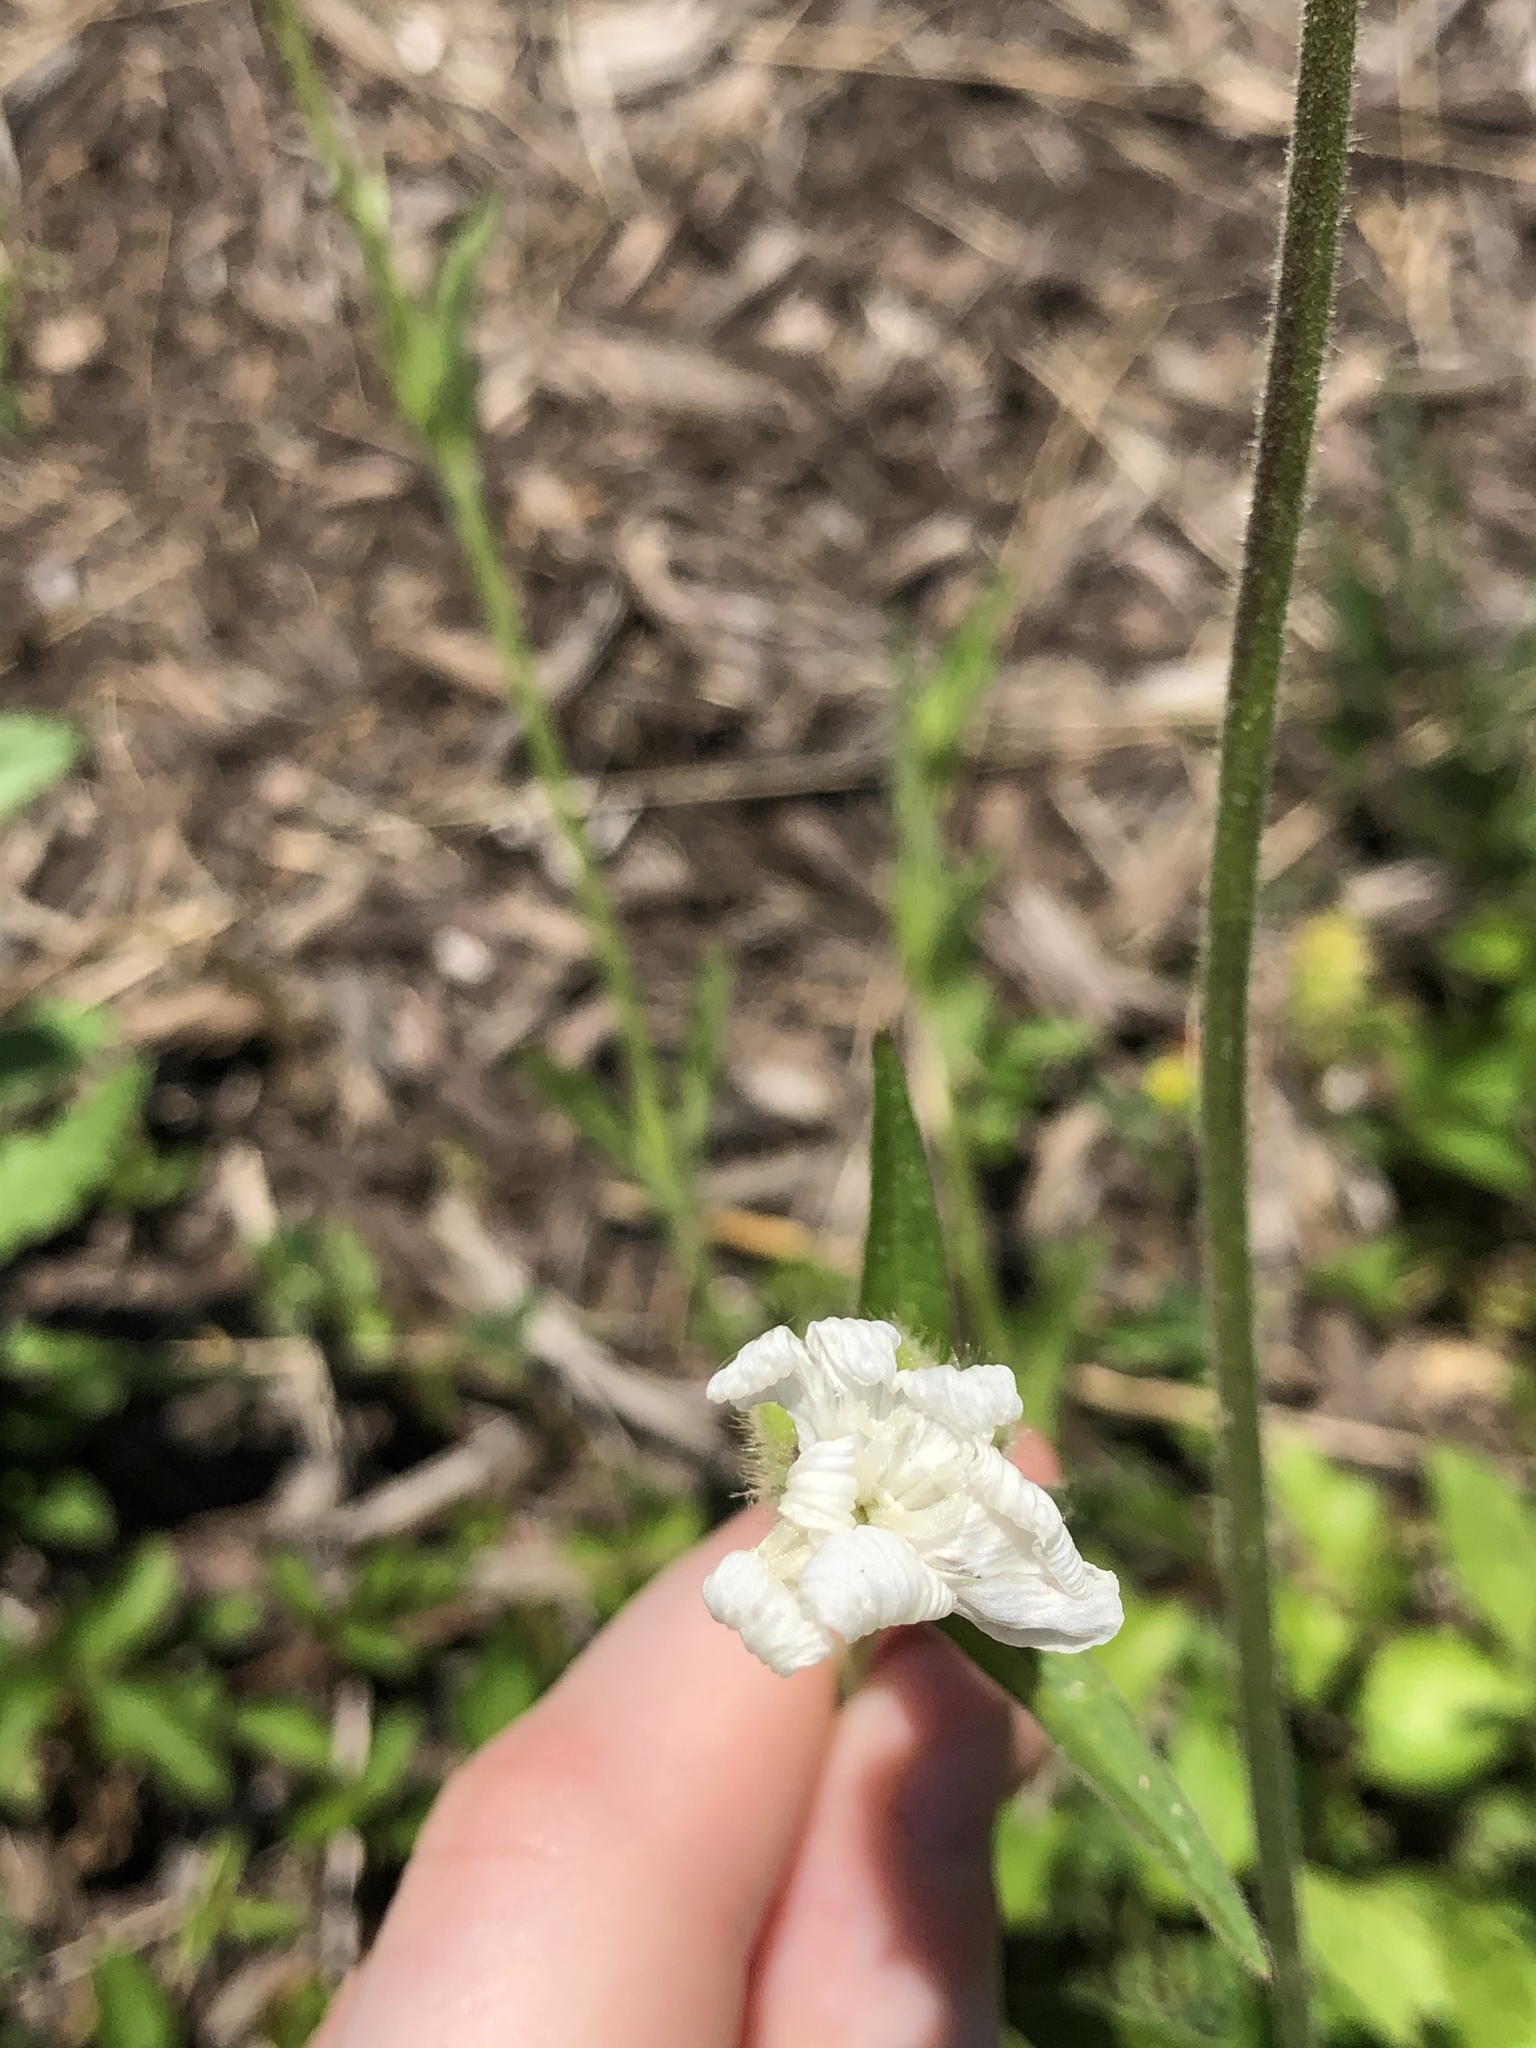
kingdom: Plantae
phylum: Tracheophyta
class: Magnoliopsida
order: Caryophyllales
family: Caryophyllaceae
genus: Silene
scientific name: Silene latifolia
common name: White campion
